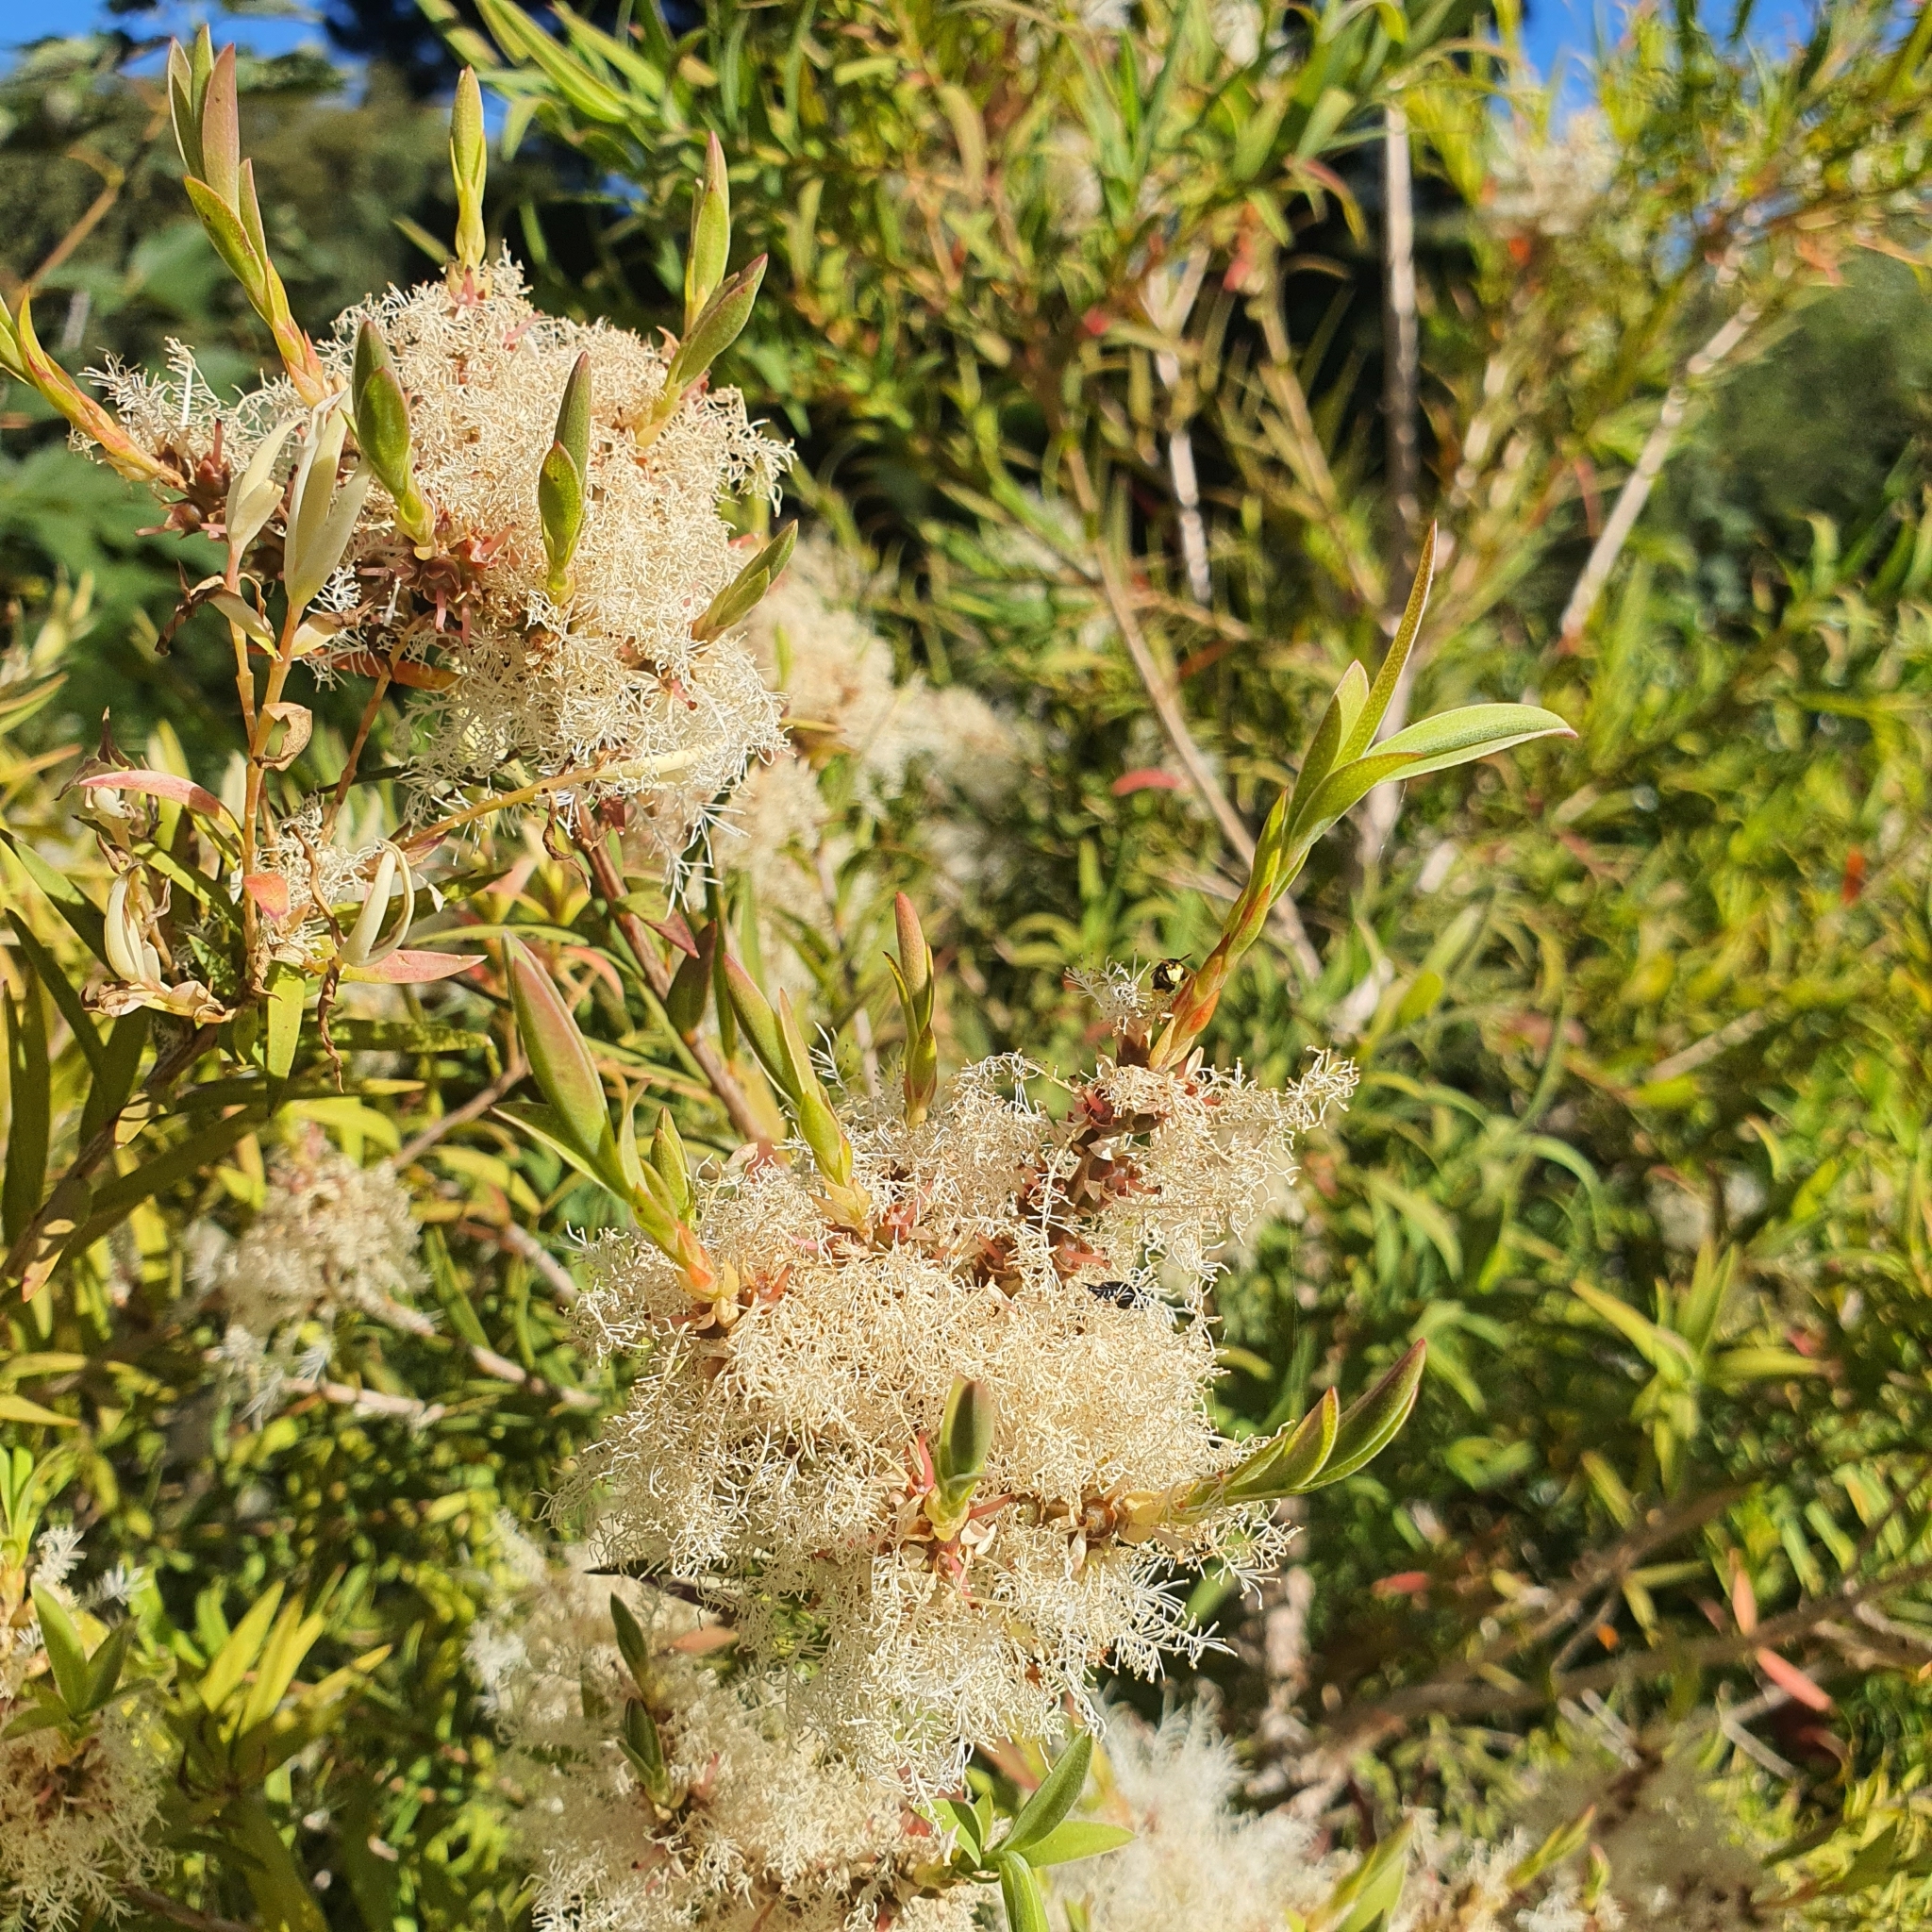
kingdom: Animalia
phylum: Arthropoda
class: Insecta
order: Hymenoptera
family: Colletidae
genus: Hylaeus
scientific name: Hylaeus euxanthus
